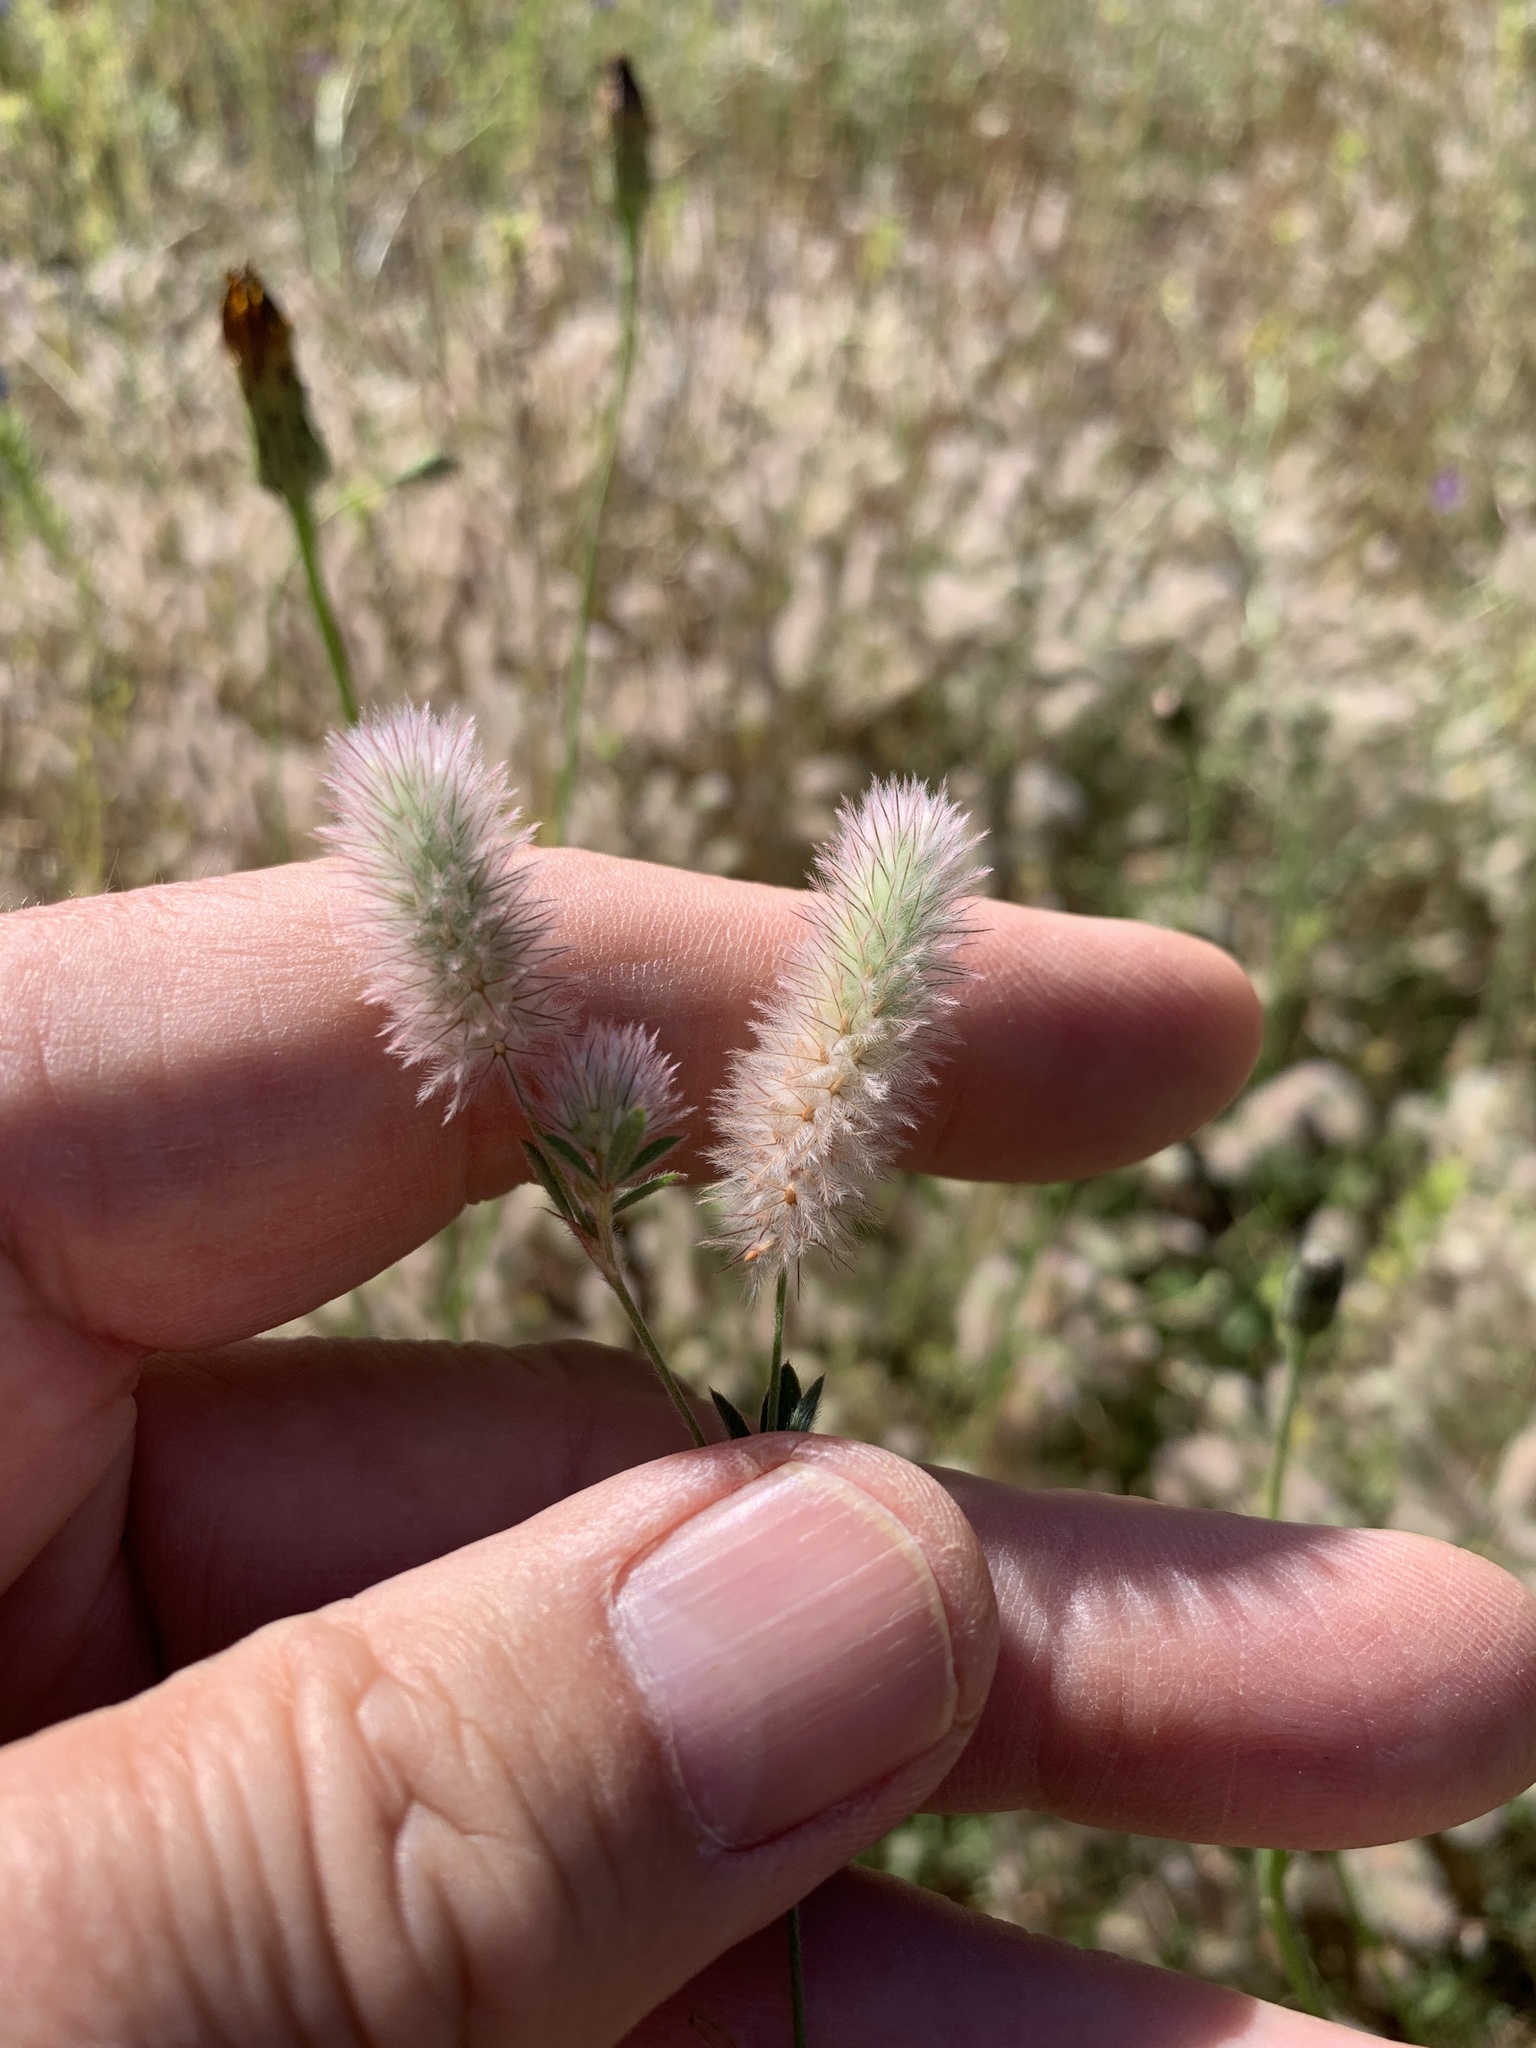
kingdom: Plantae
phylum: Tracheophyta
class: Magnoliopsida
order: Fabales
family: Fabaceae
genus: Trifolium
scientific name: Trifolium arvense
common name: Hare's-foot clover
